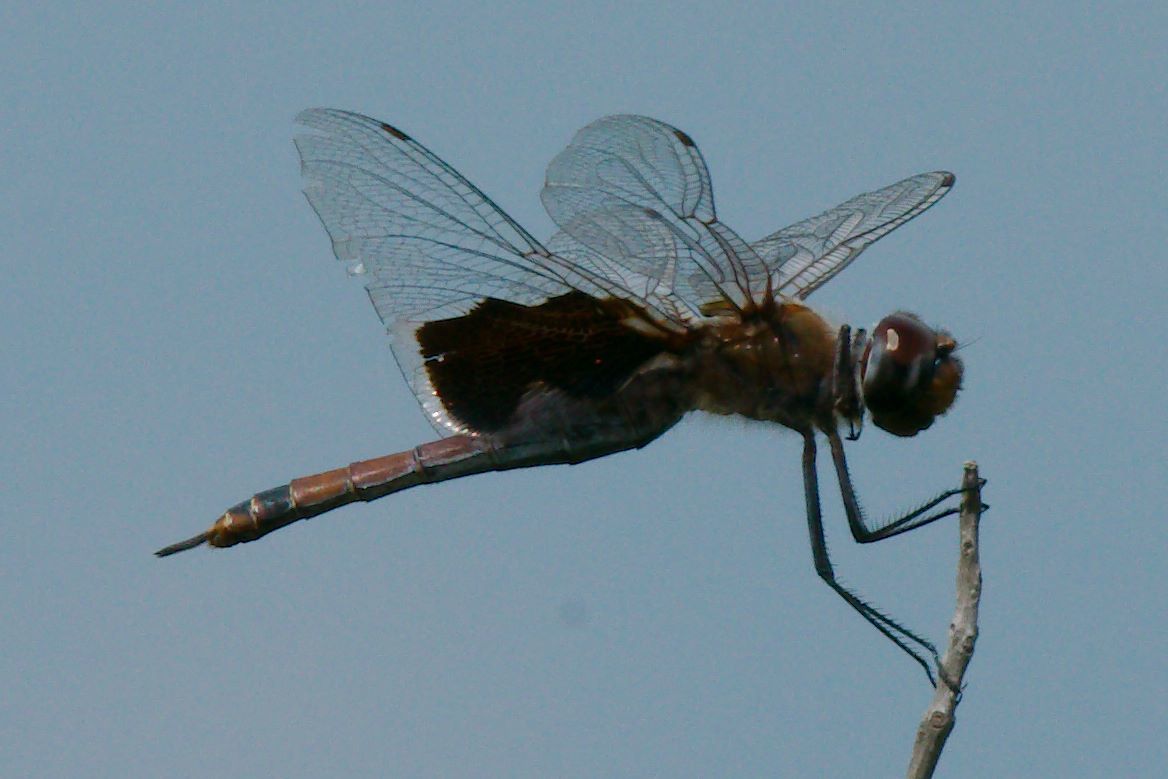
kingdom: Animalia
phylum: Arthropoda
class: Insecta
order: Odonata
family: Libellulidae
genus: Tramea
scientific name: Tramea carolina
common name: Carolina saddlebags
